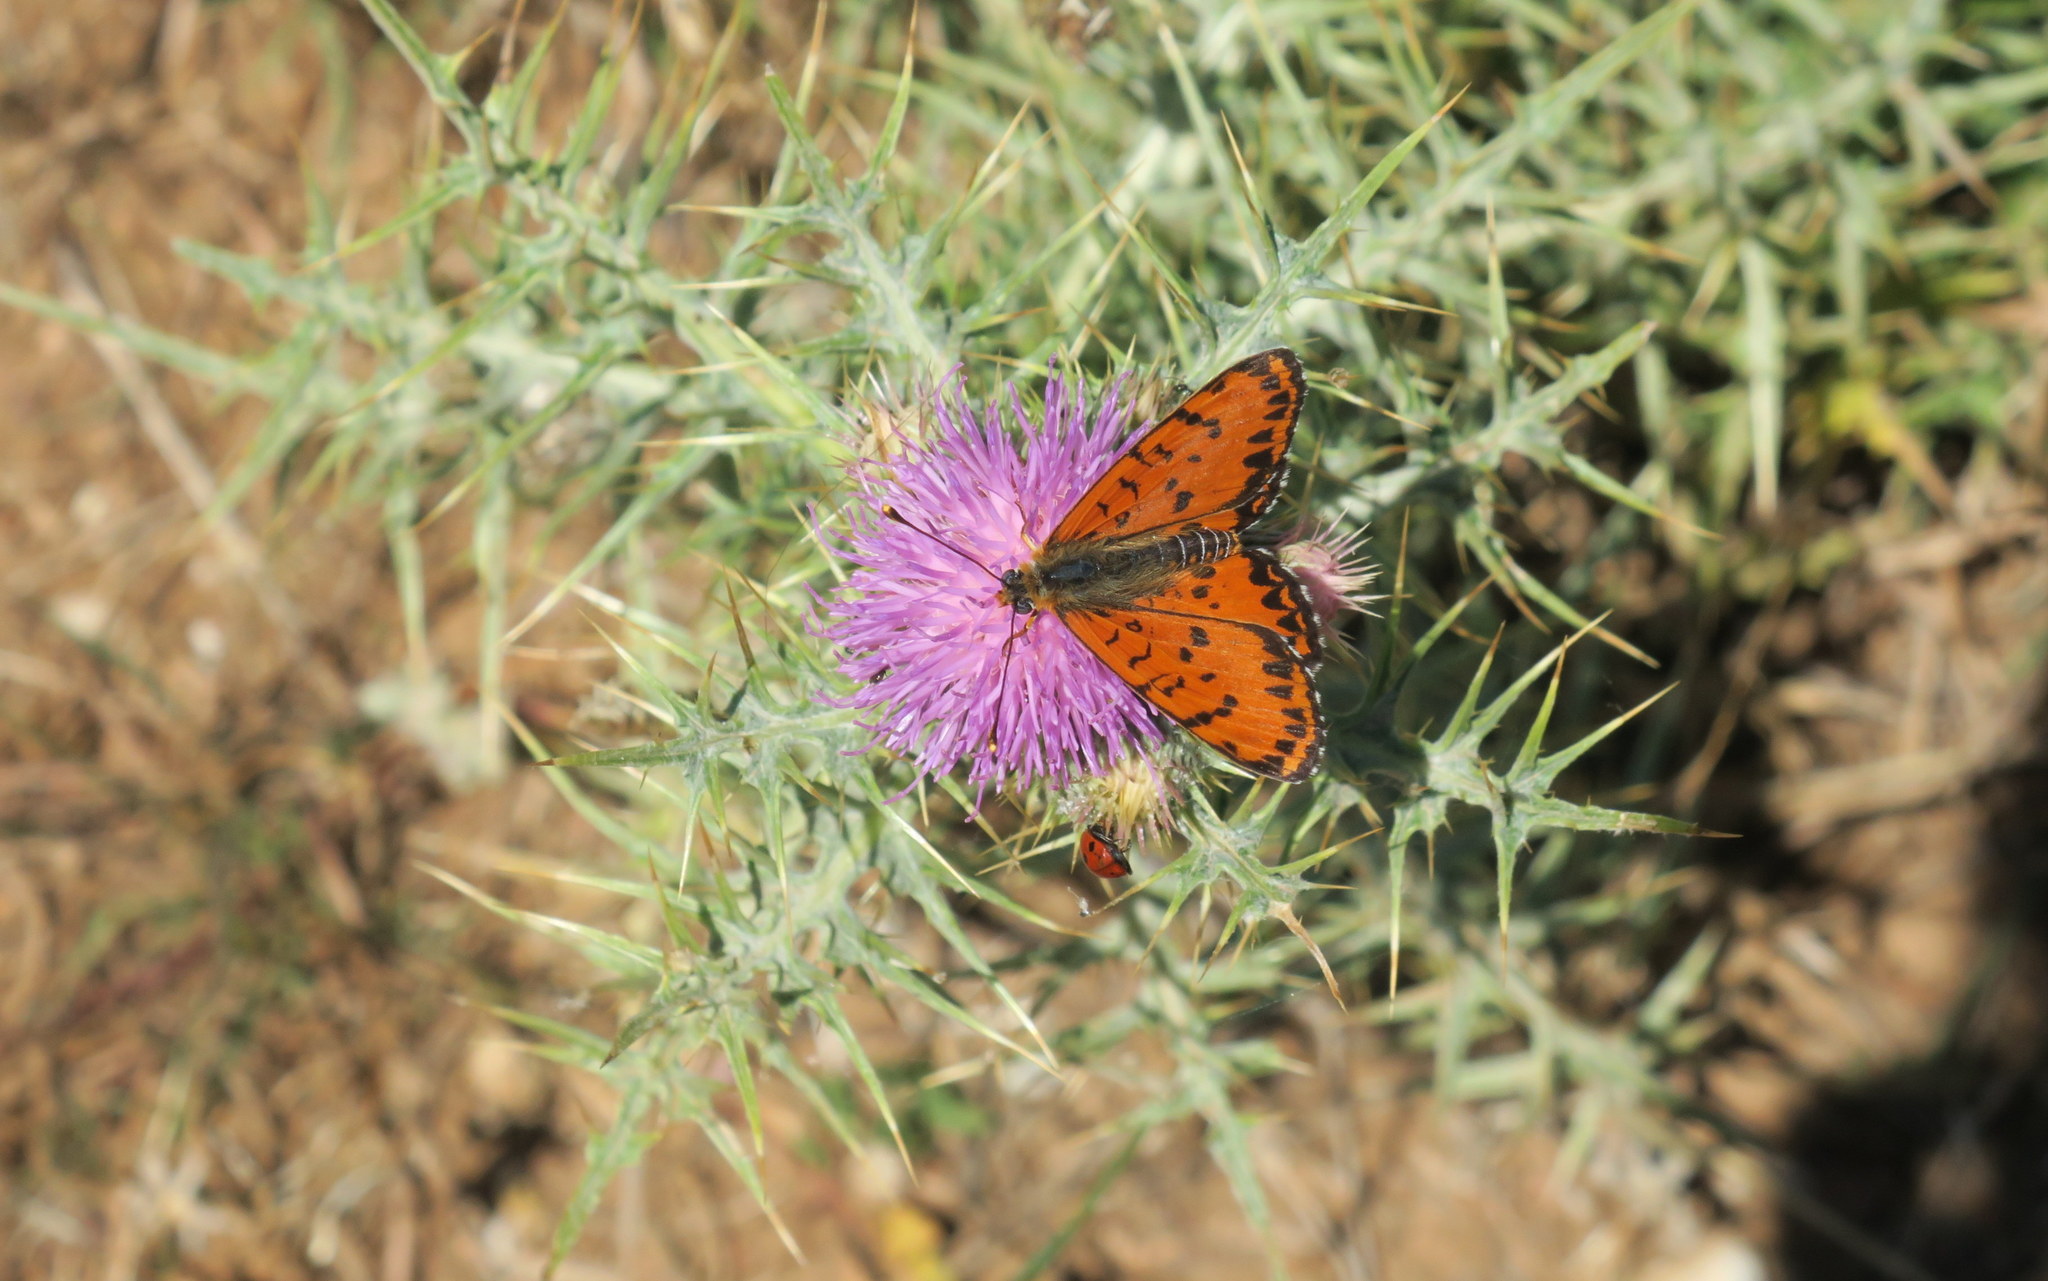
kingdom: Animalia
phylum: Arthropoda
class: Insecta
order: Lepidoptera
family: Nymphalidae
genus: Melitaea
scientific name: Melitaea didyma
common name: Spotted fritillary
